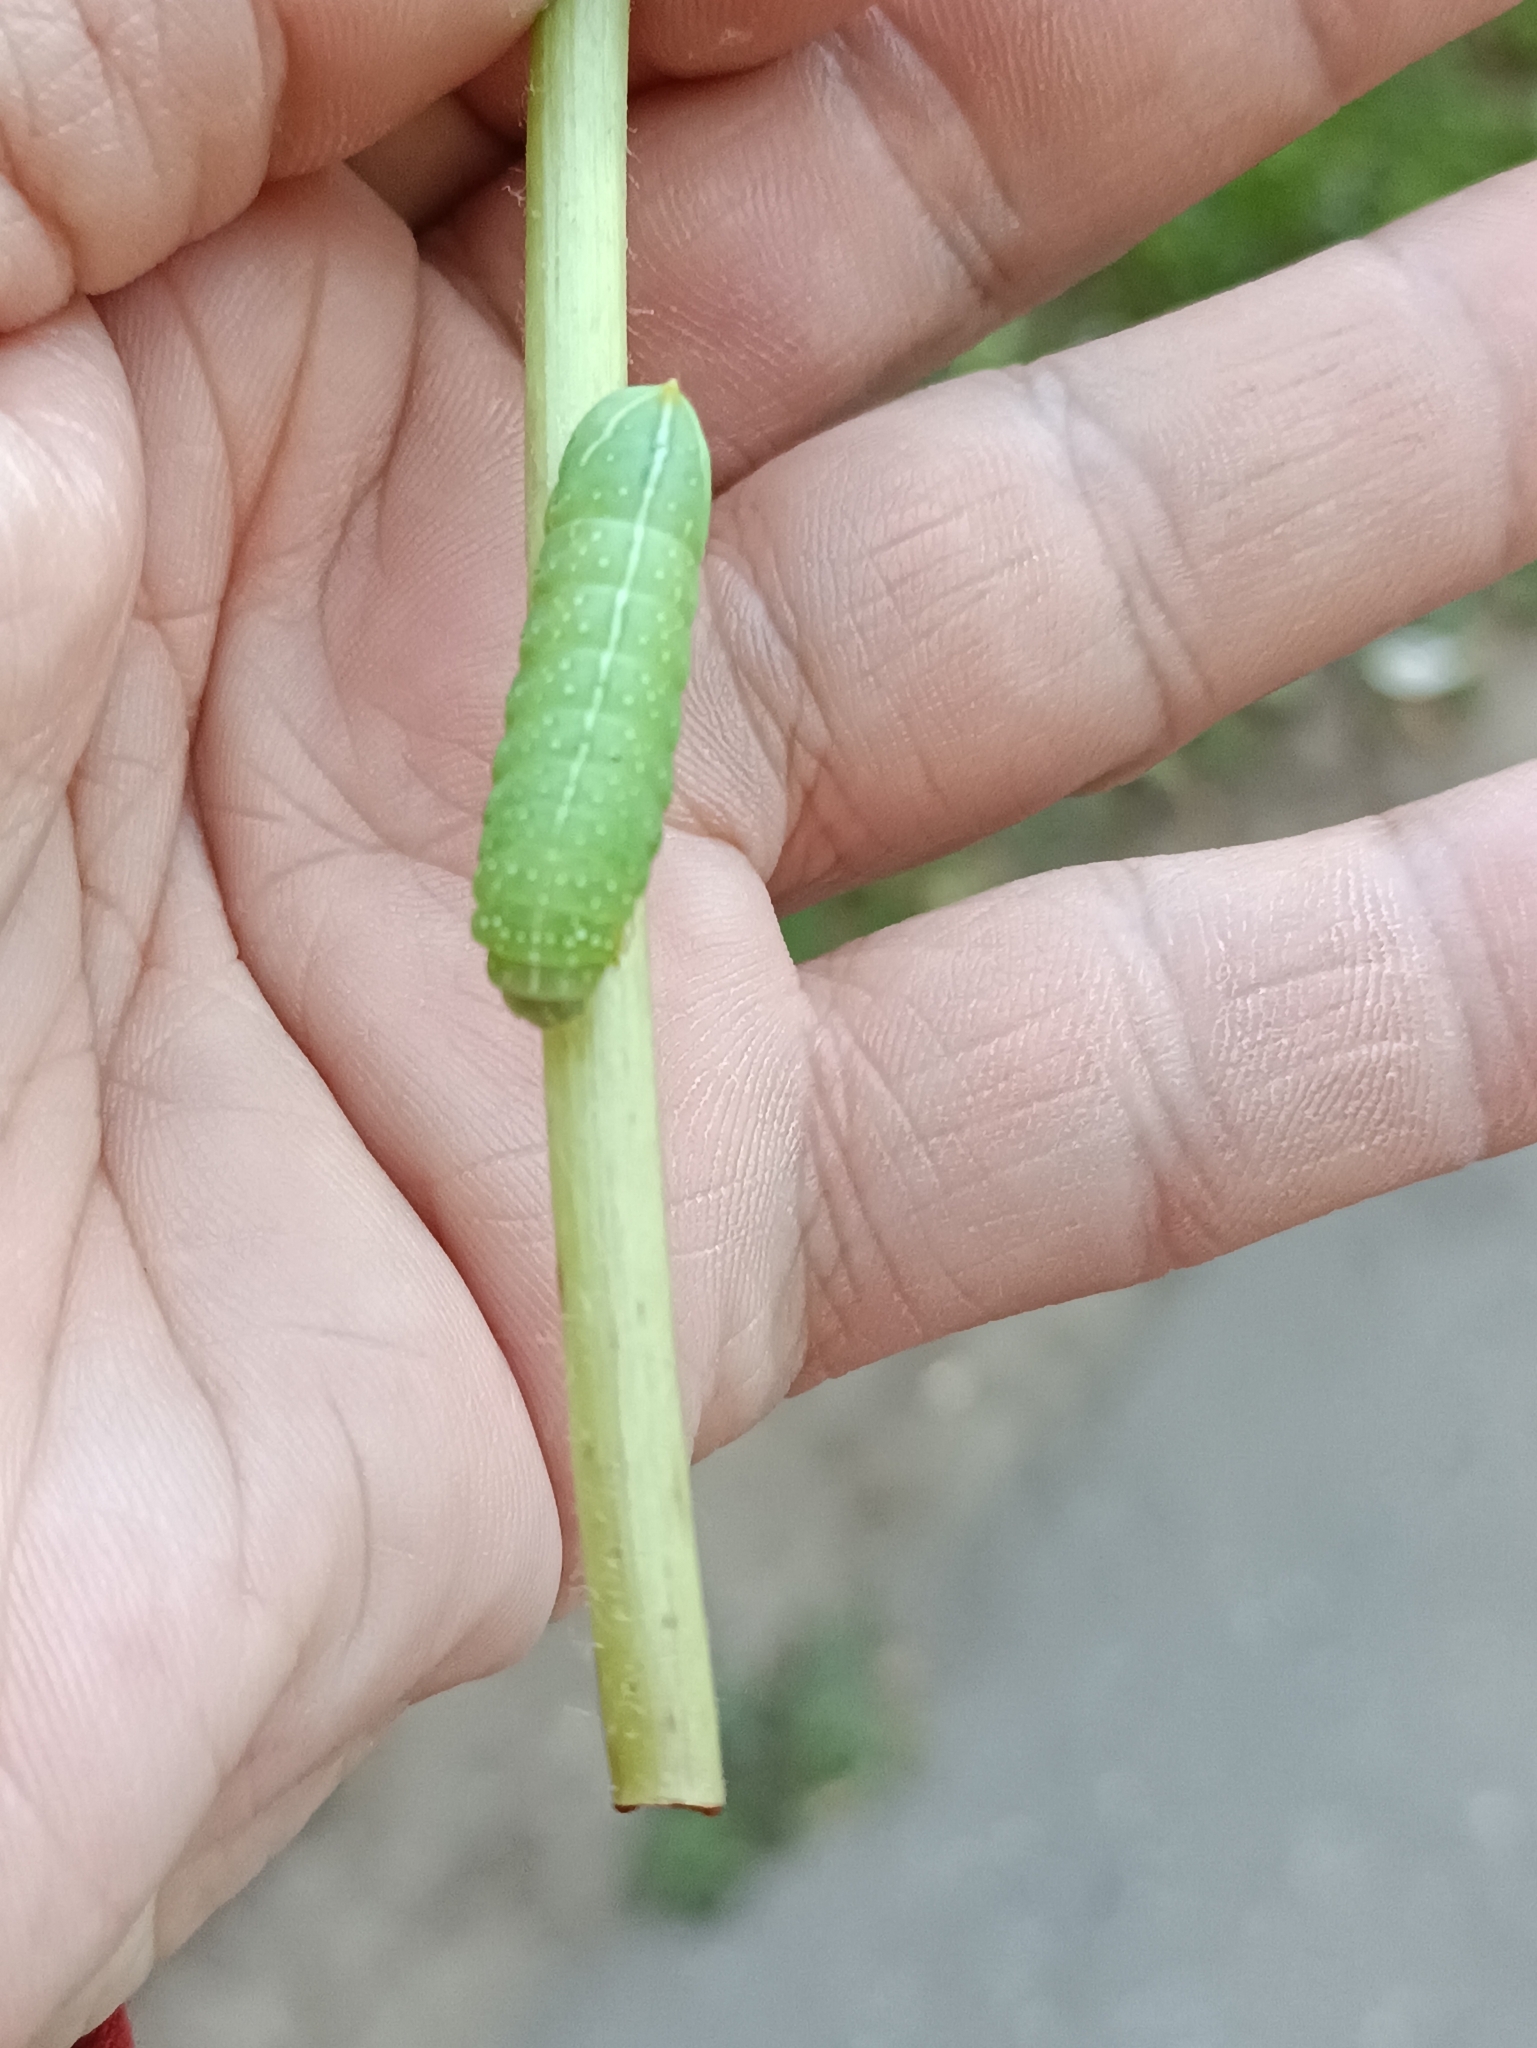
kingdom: Animalia
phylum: Arthropoda
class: Insecta
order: Lepidoptera
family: Noctuidae
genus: Amphipyra
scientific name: Amphipyra pyramidea
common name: Copper underwing
